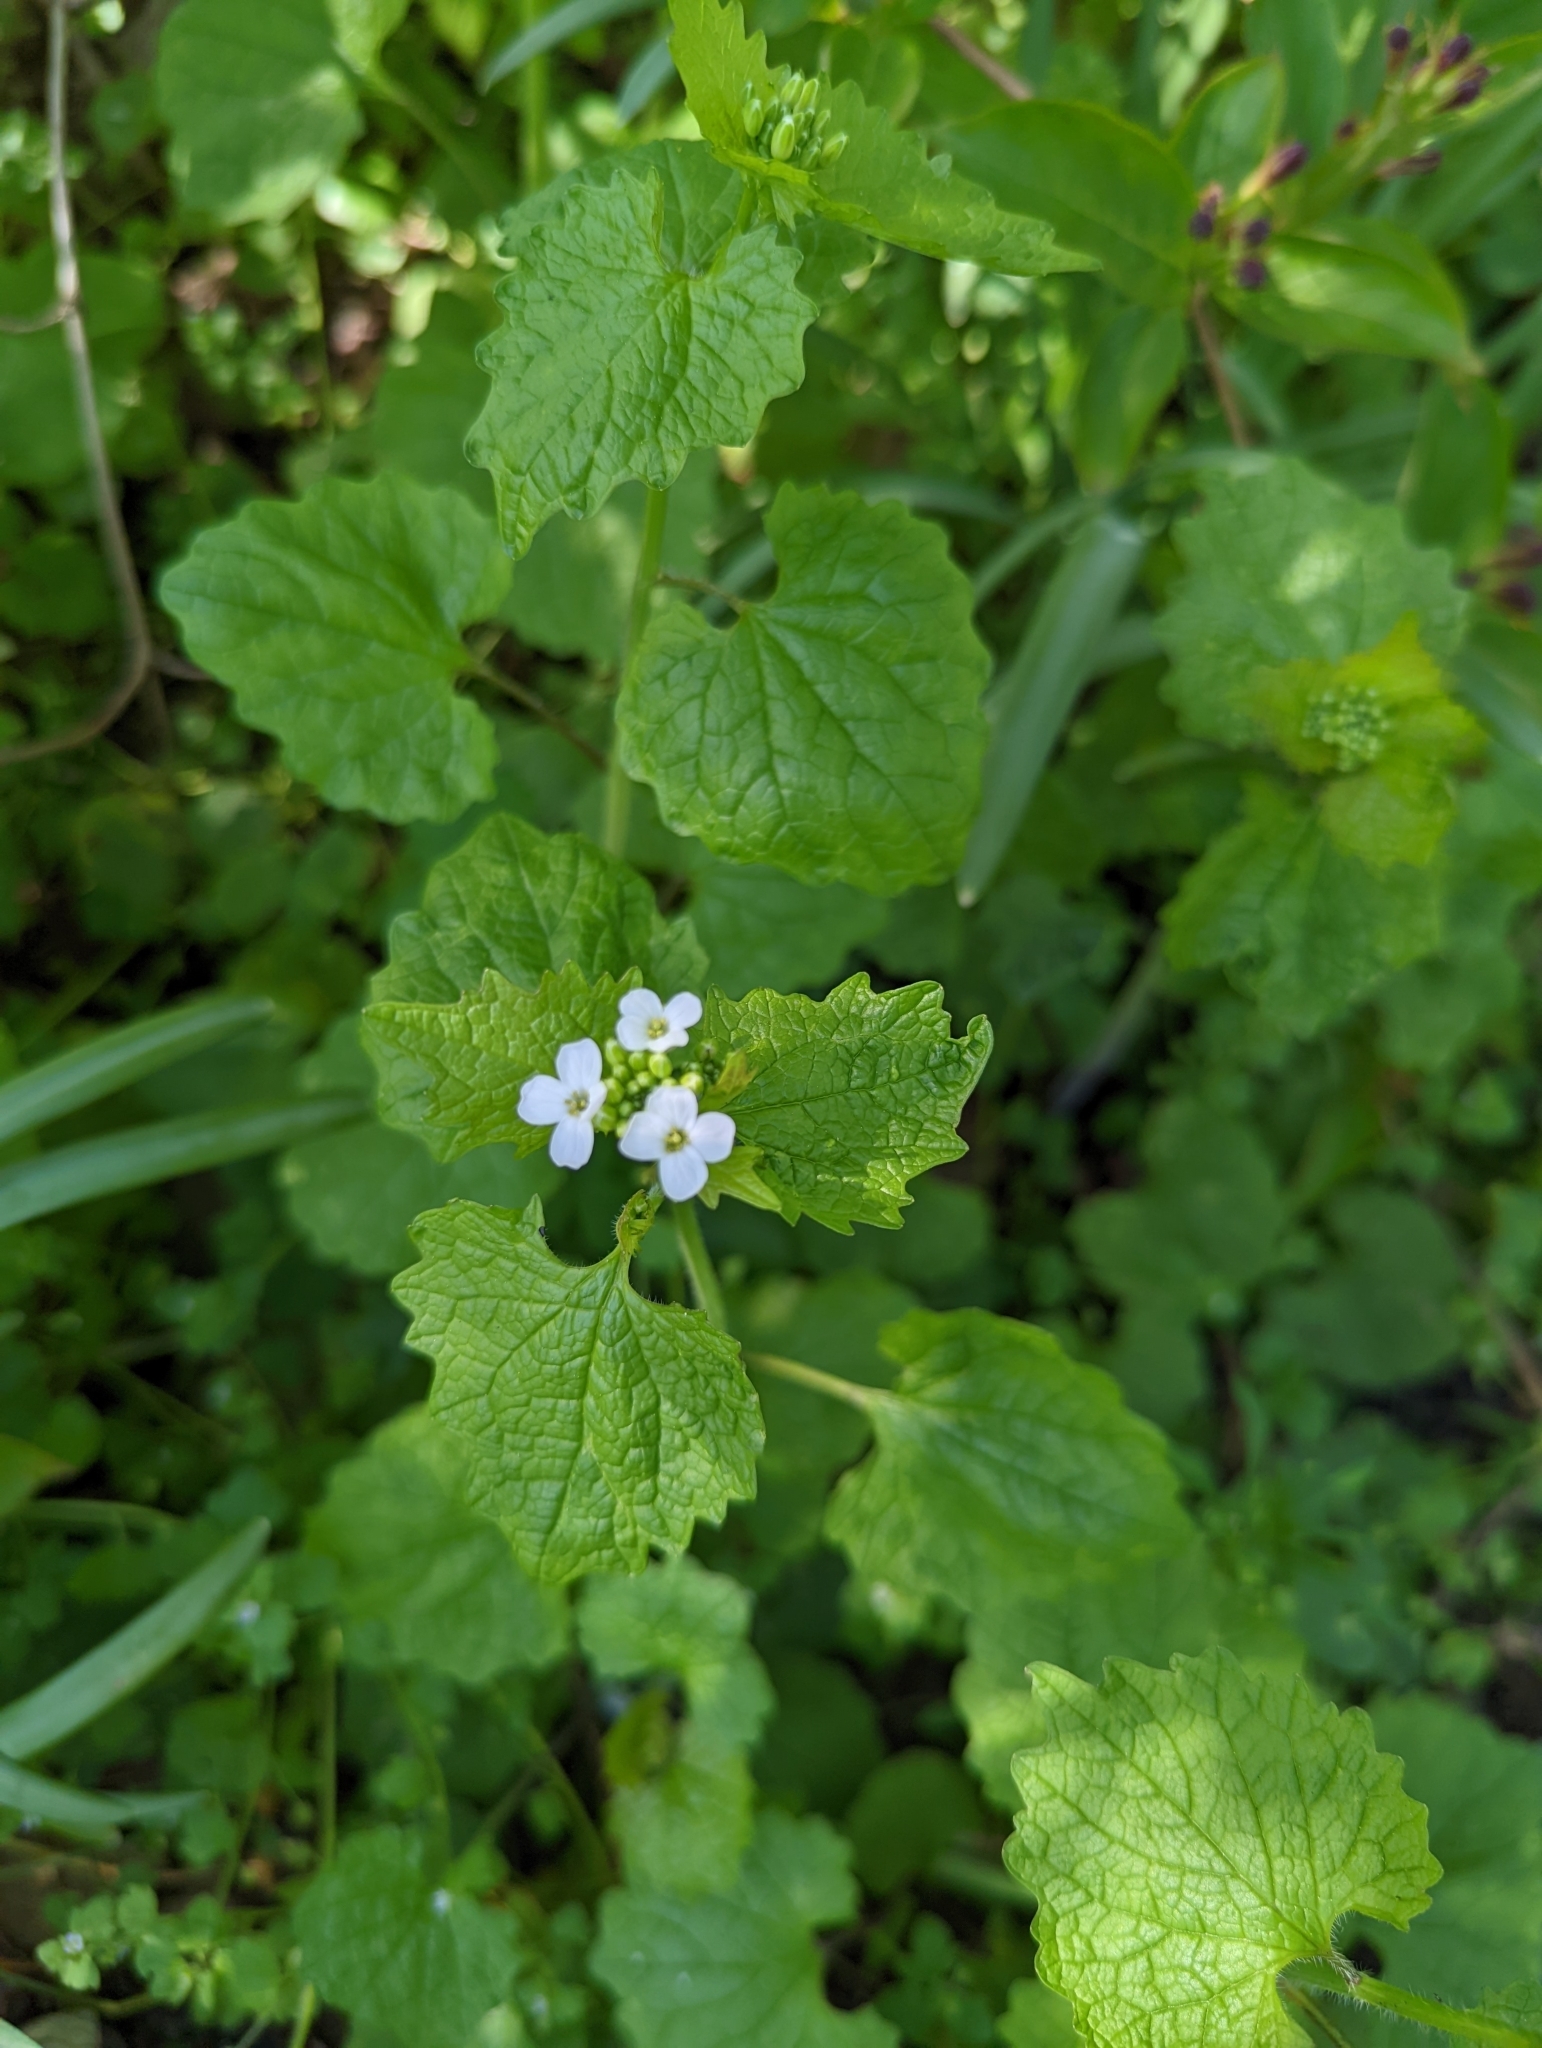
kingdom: Plantae
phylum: Tracheophyta
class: Magnoliopsida
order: Brassicales
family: Brassicaceae
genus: Alliaria
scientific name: Alliaria petiolata
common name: Garlic mustard
